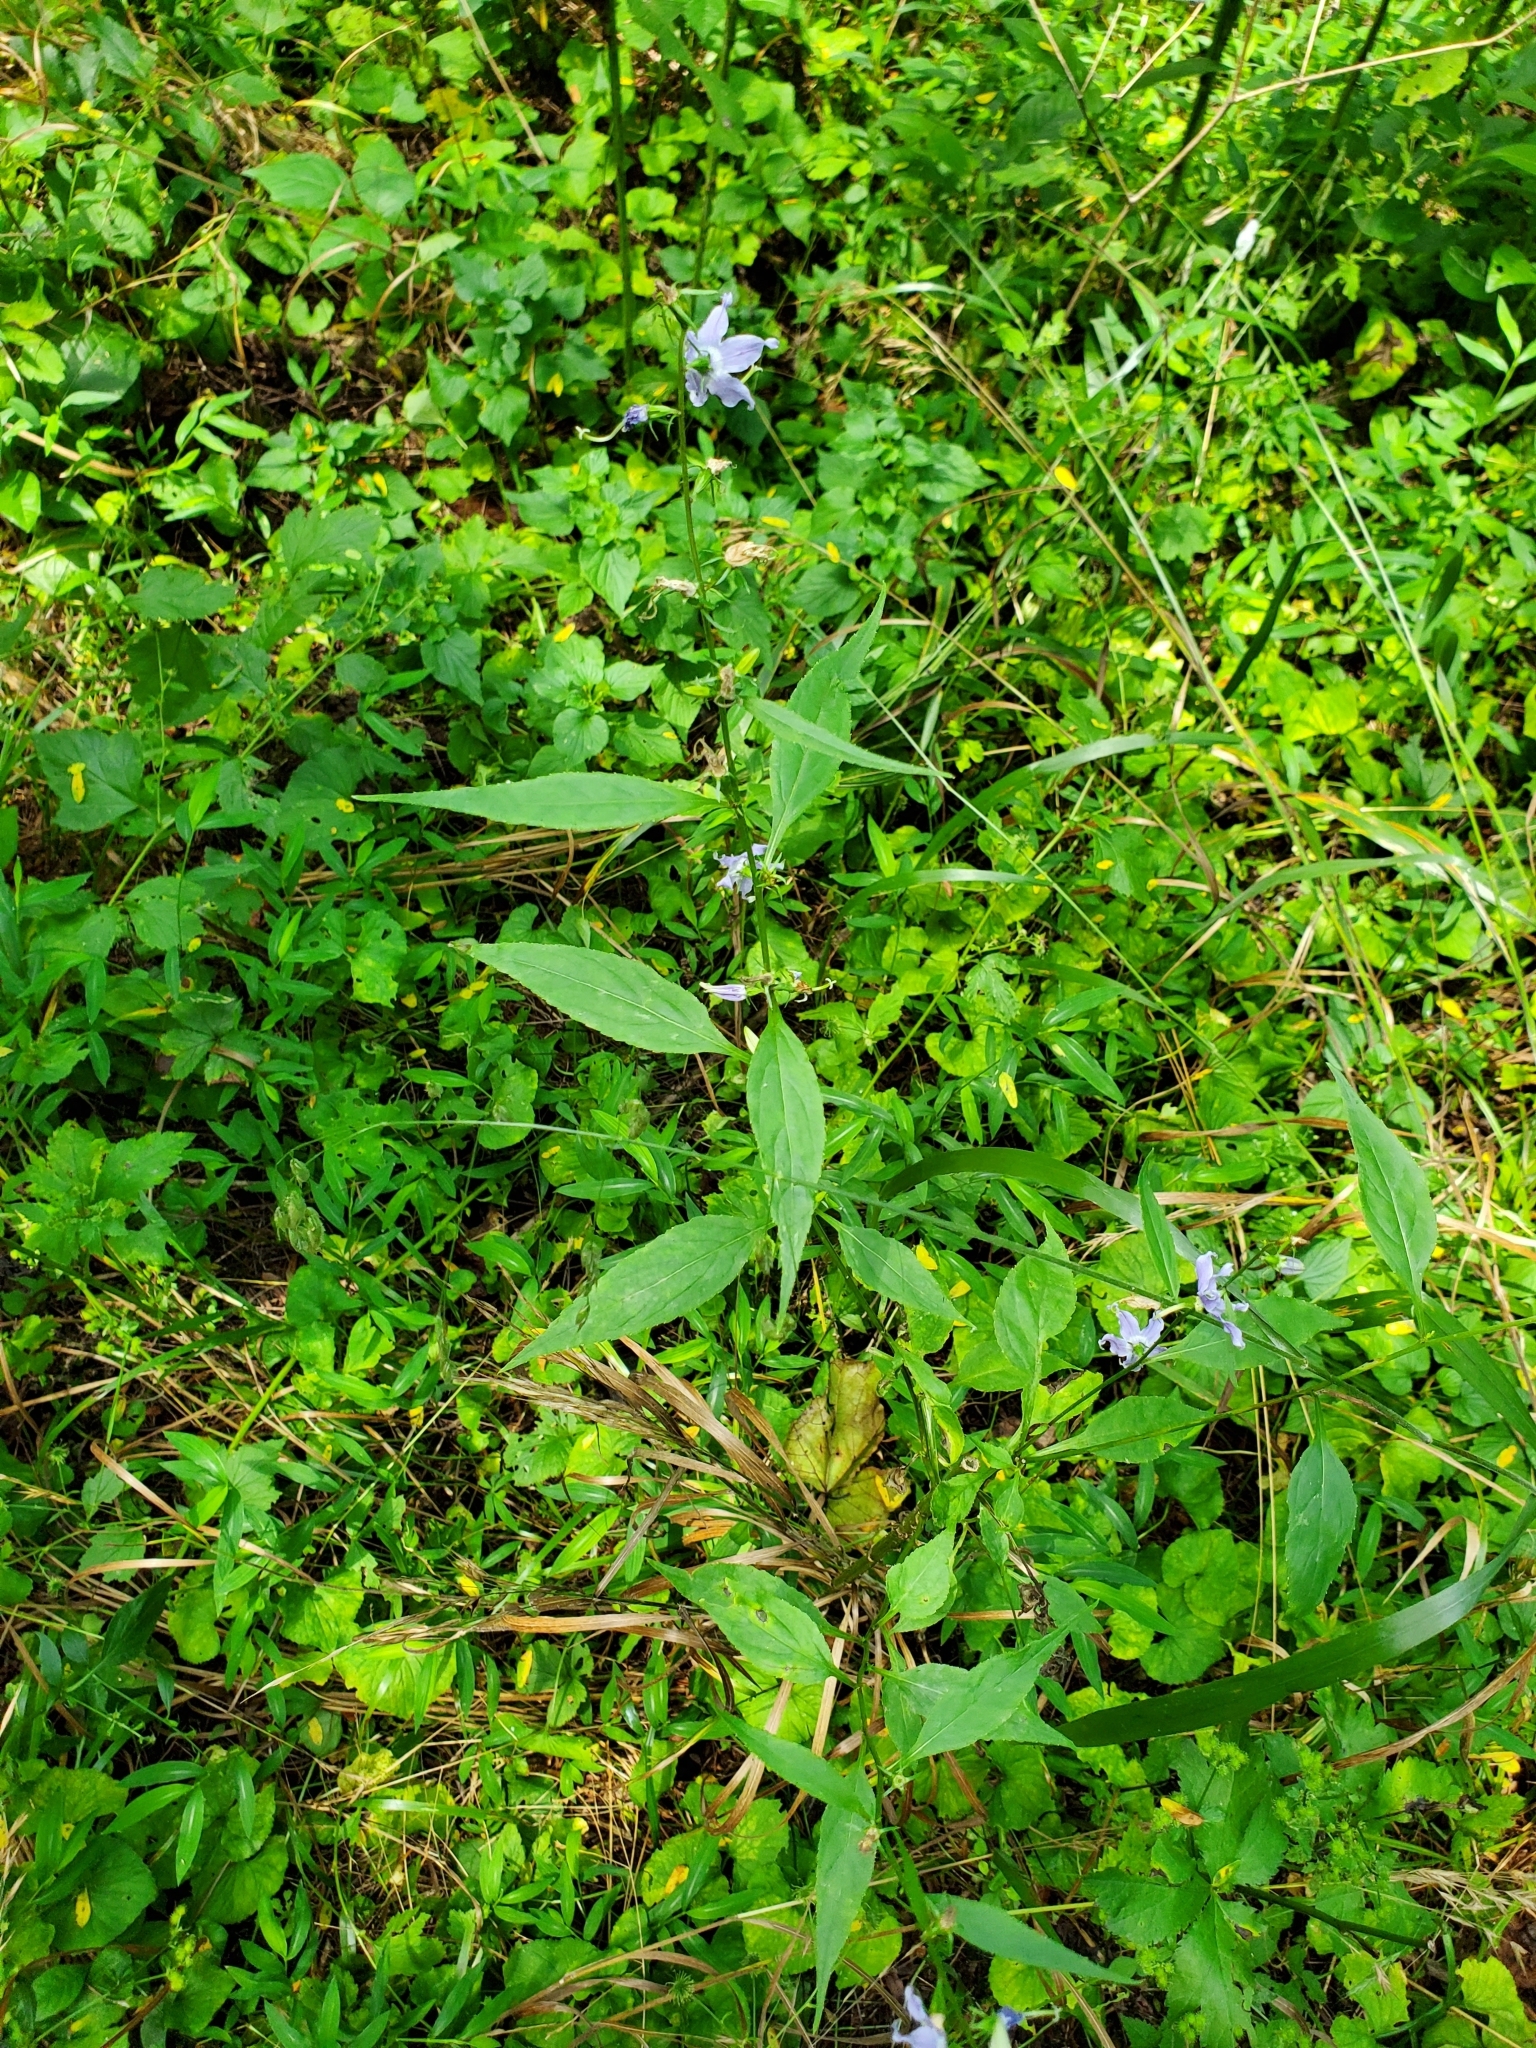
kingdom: Plantae
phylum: Tracheophyta
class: Magnoliopsida
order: Asterales
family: Campanulaceae
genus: Campanulastrum
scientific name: Campanulastrum americanum
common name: American bellflower
